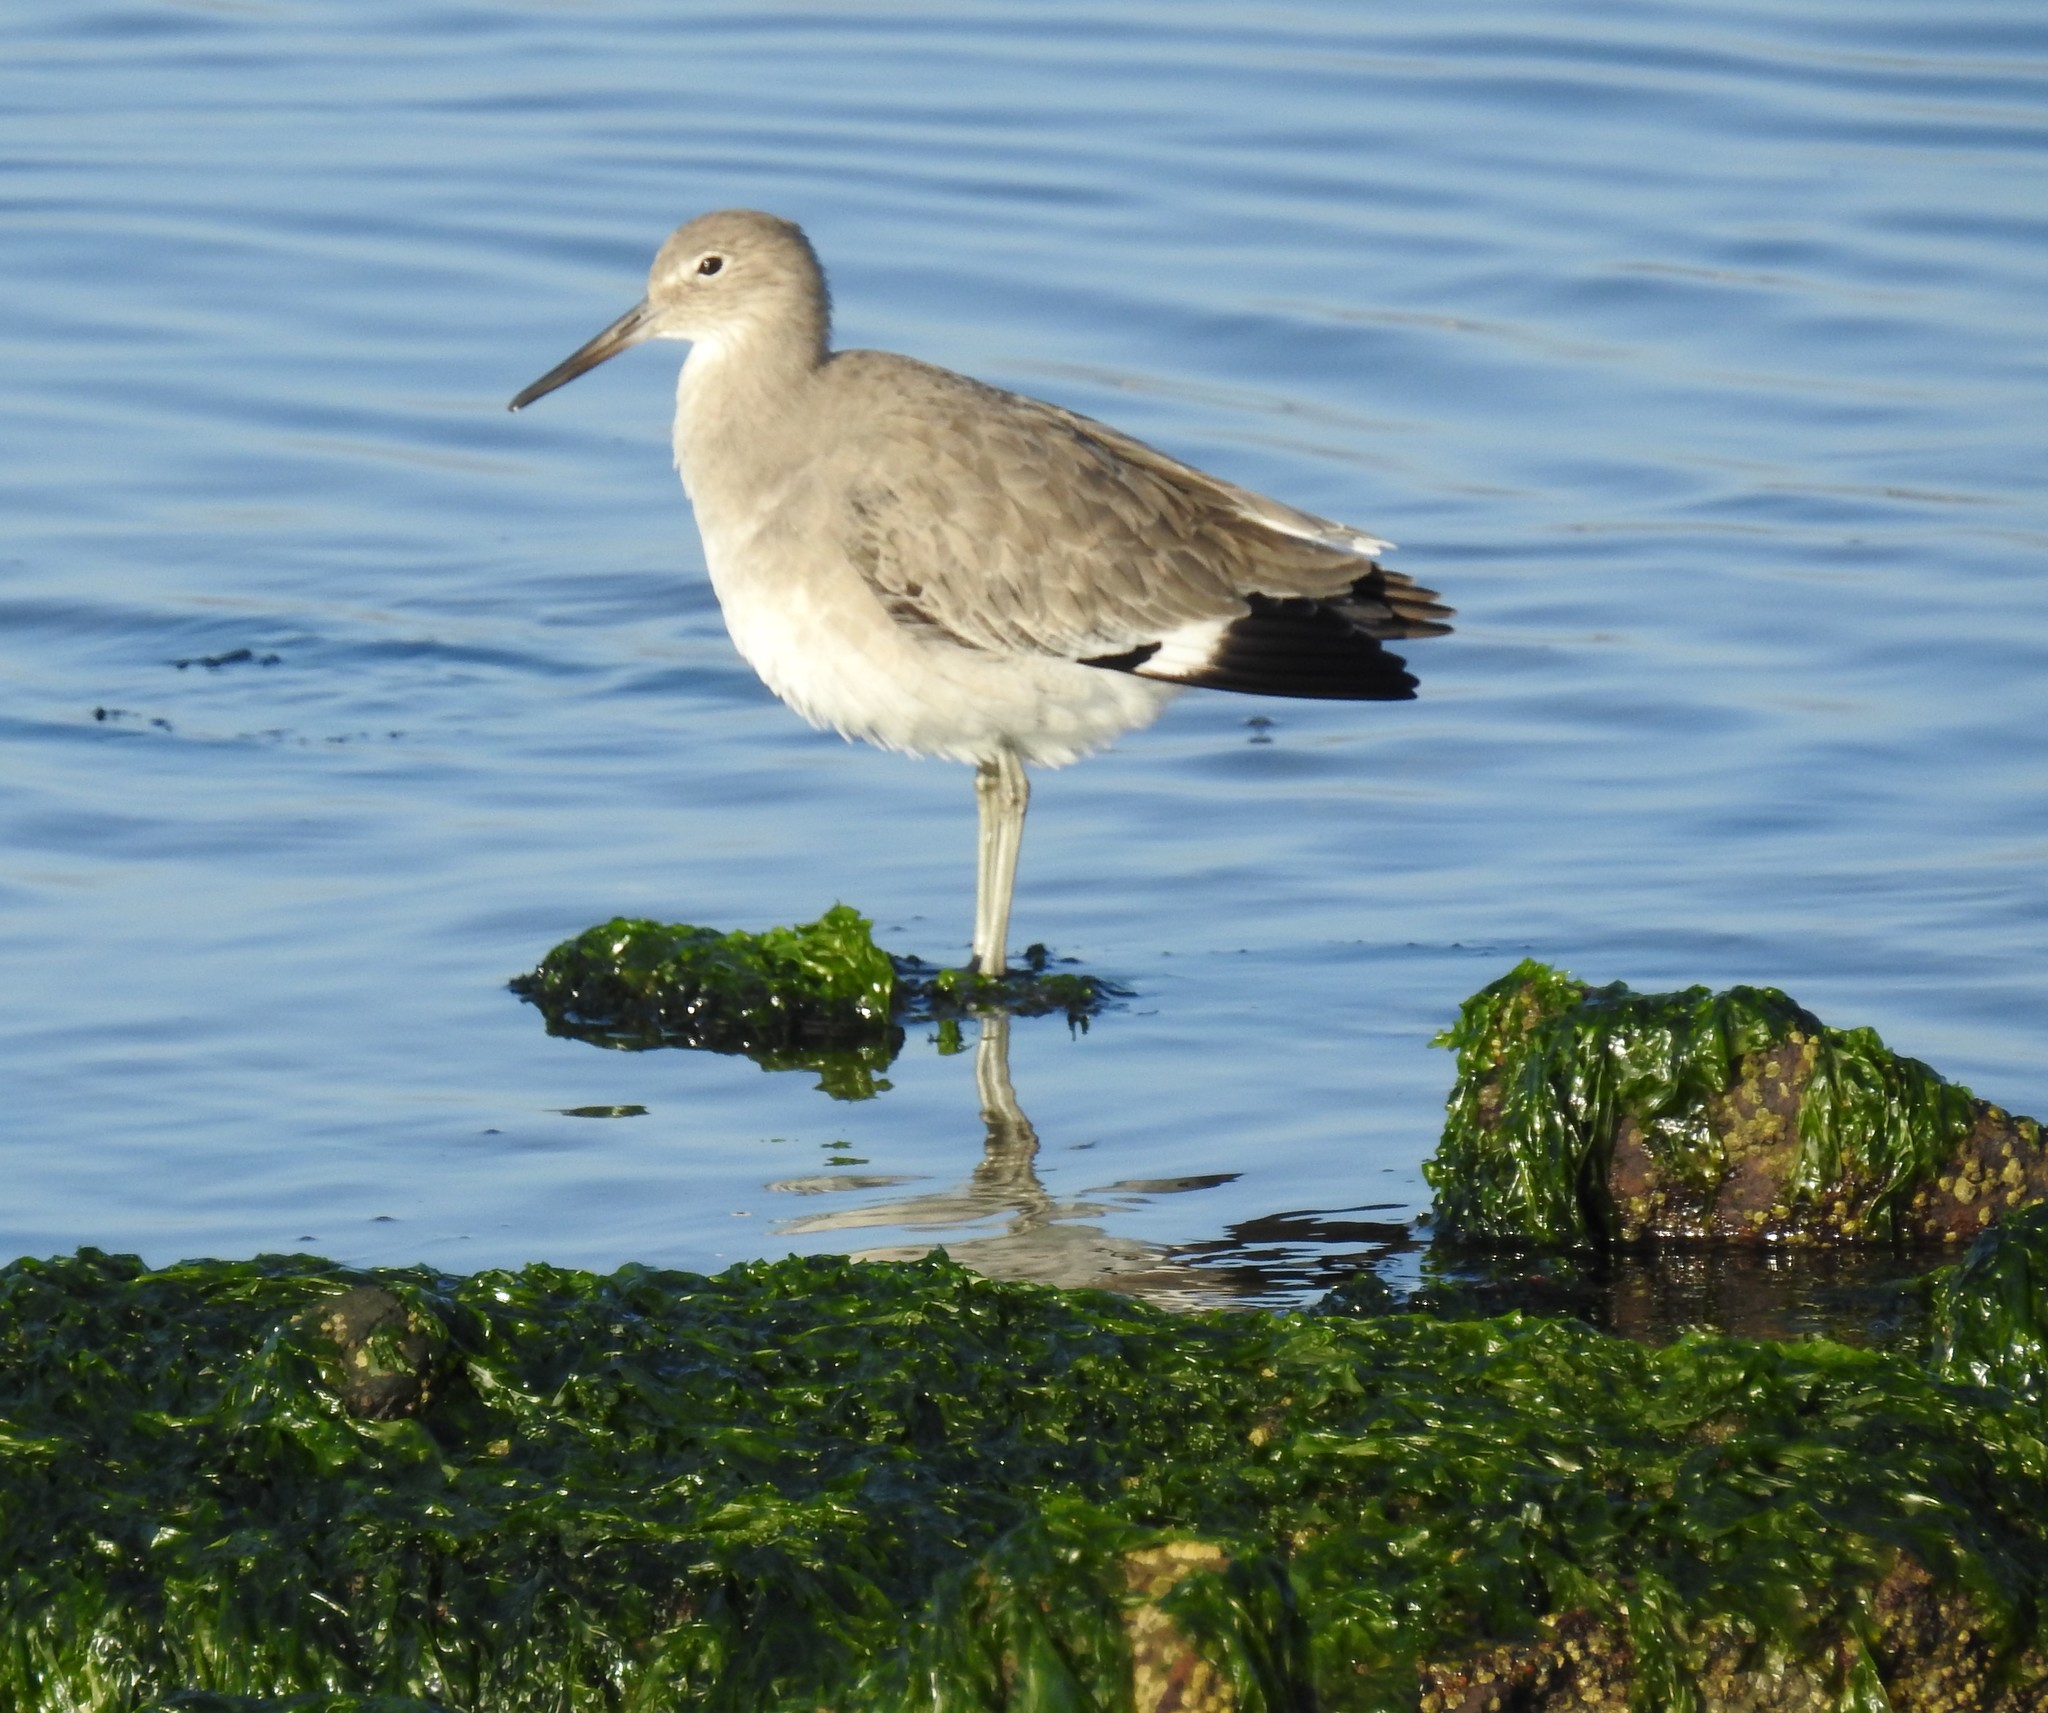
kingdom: Animalia
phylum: Chordata
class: Aves
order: Charadriiformes
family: Scolopacidae
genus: Tringa
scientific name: Tringa semipalmata
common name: Willet
